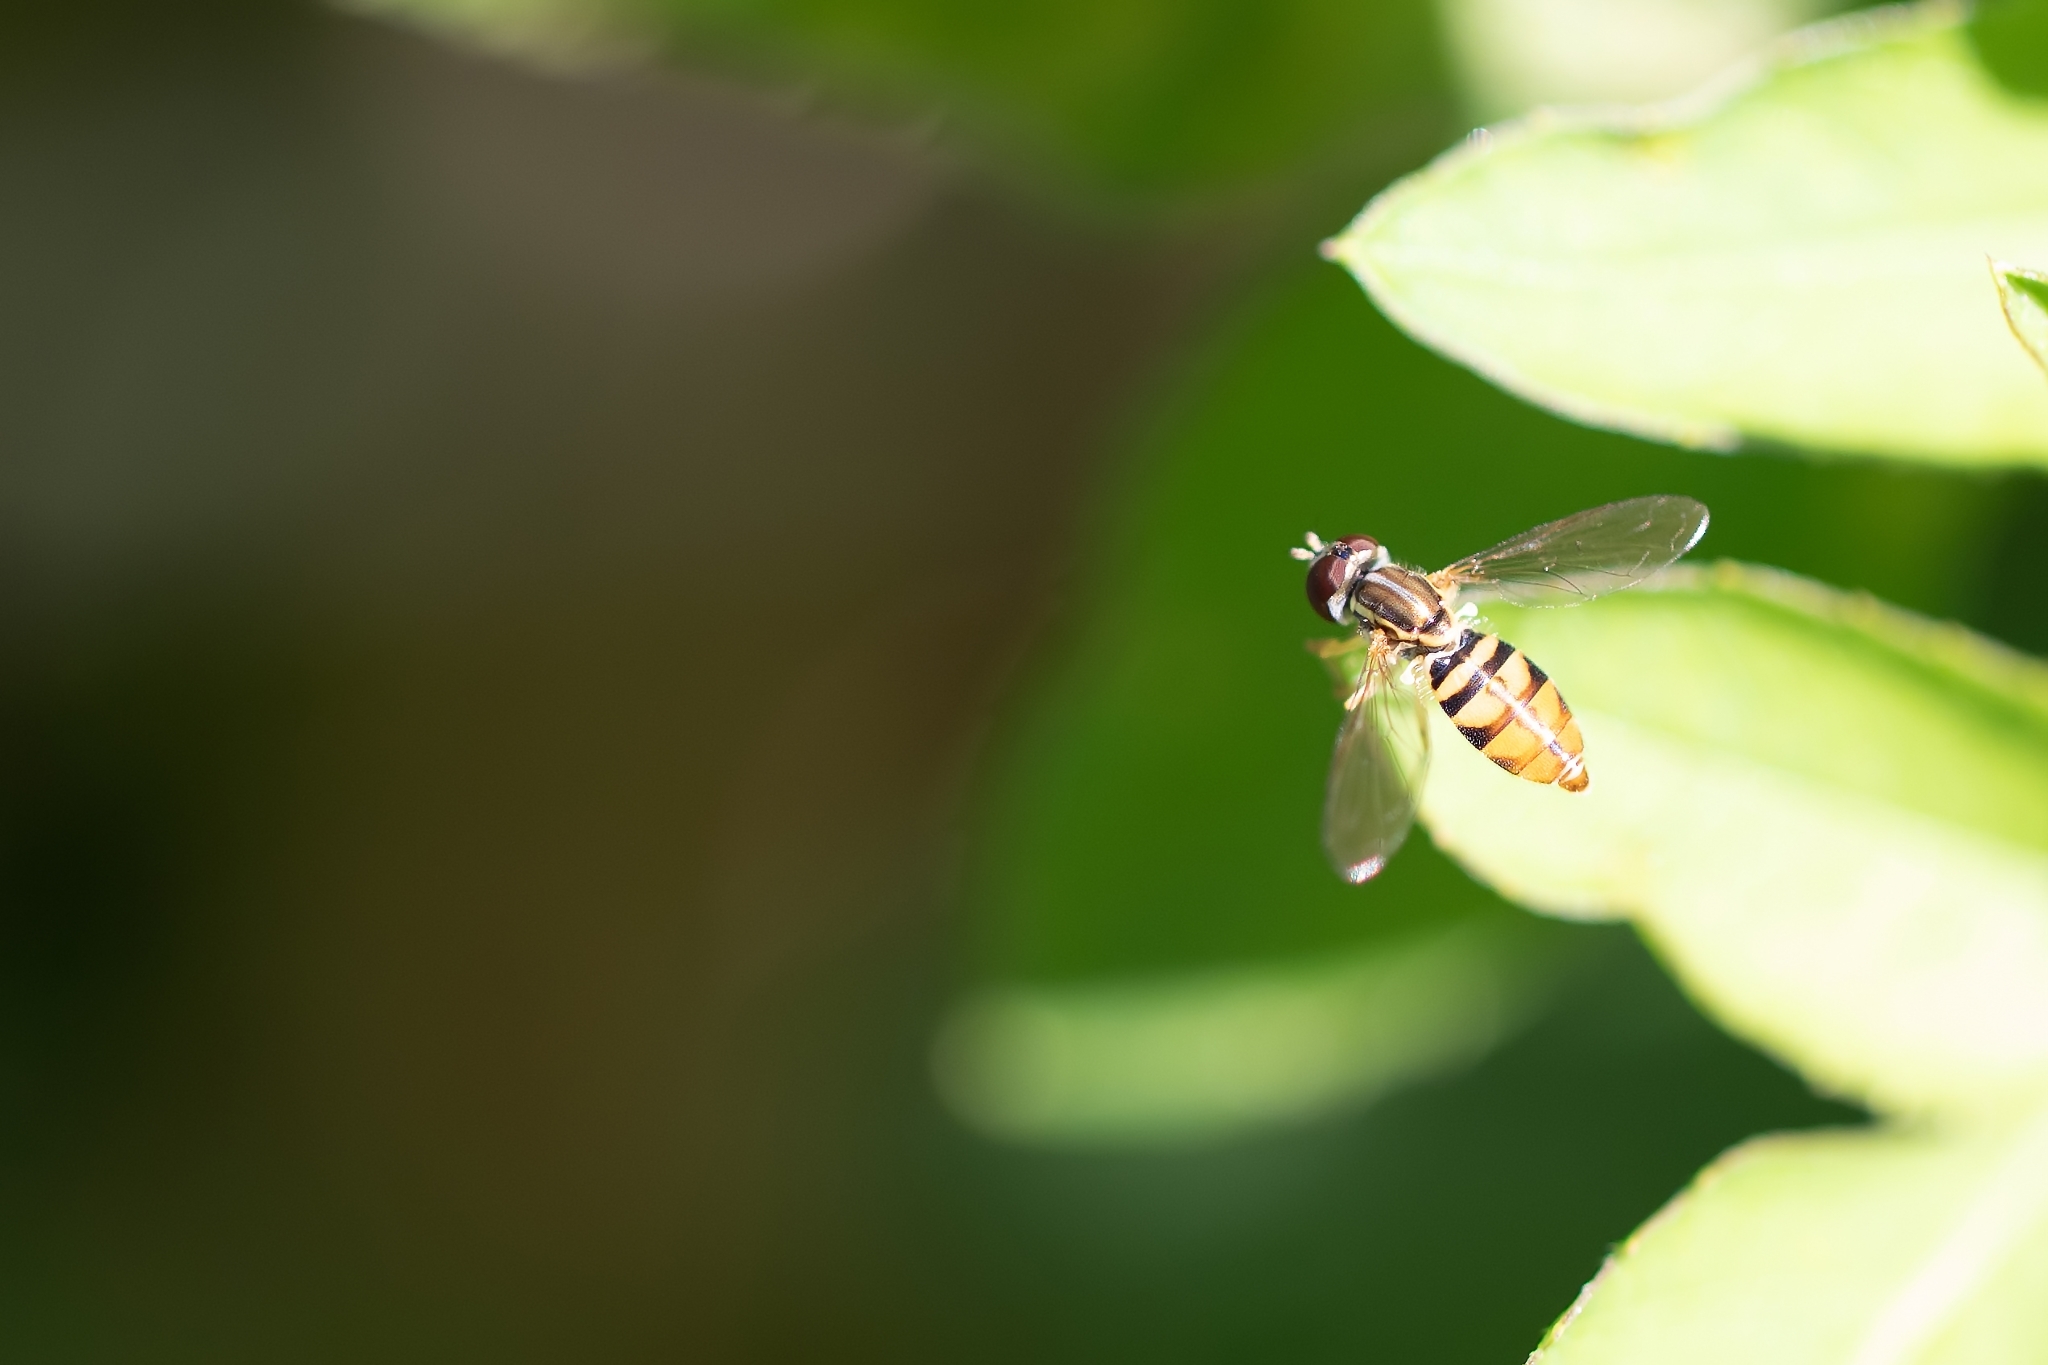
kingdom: Animalia
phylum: Arthropoda
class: Insecta
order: Diptera
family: Syrphidae
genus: Toxomerus
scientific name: Toxomerus floralis
